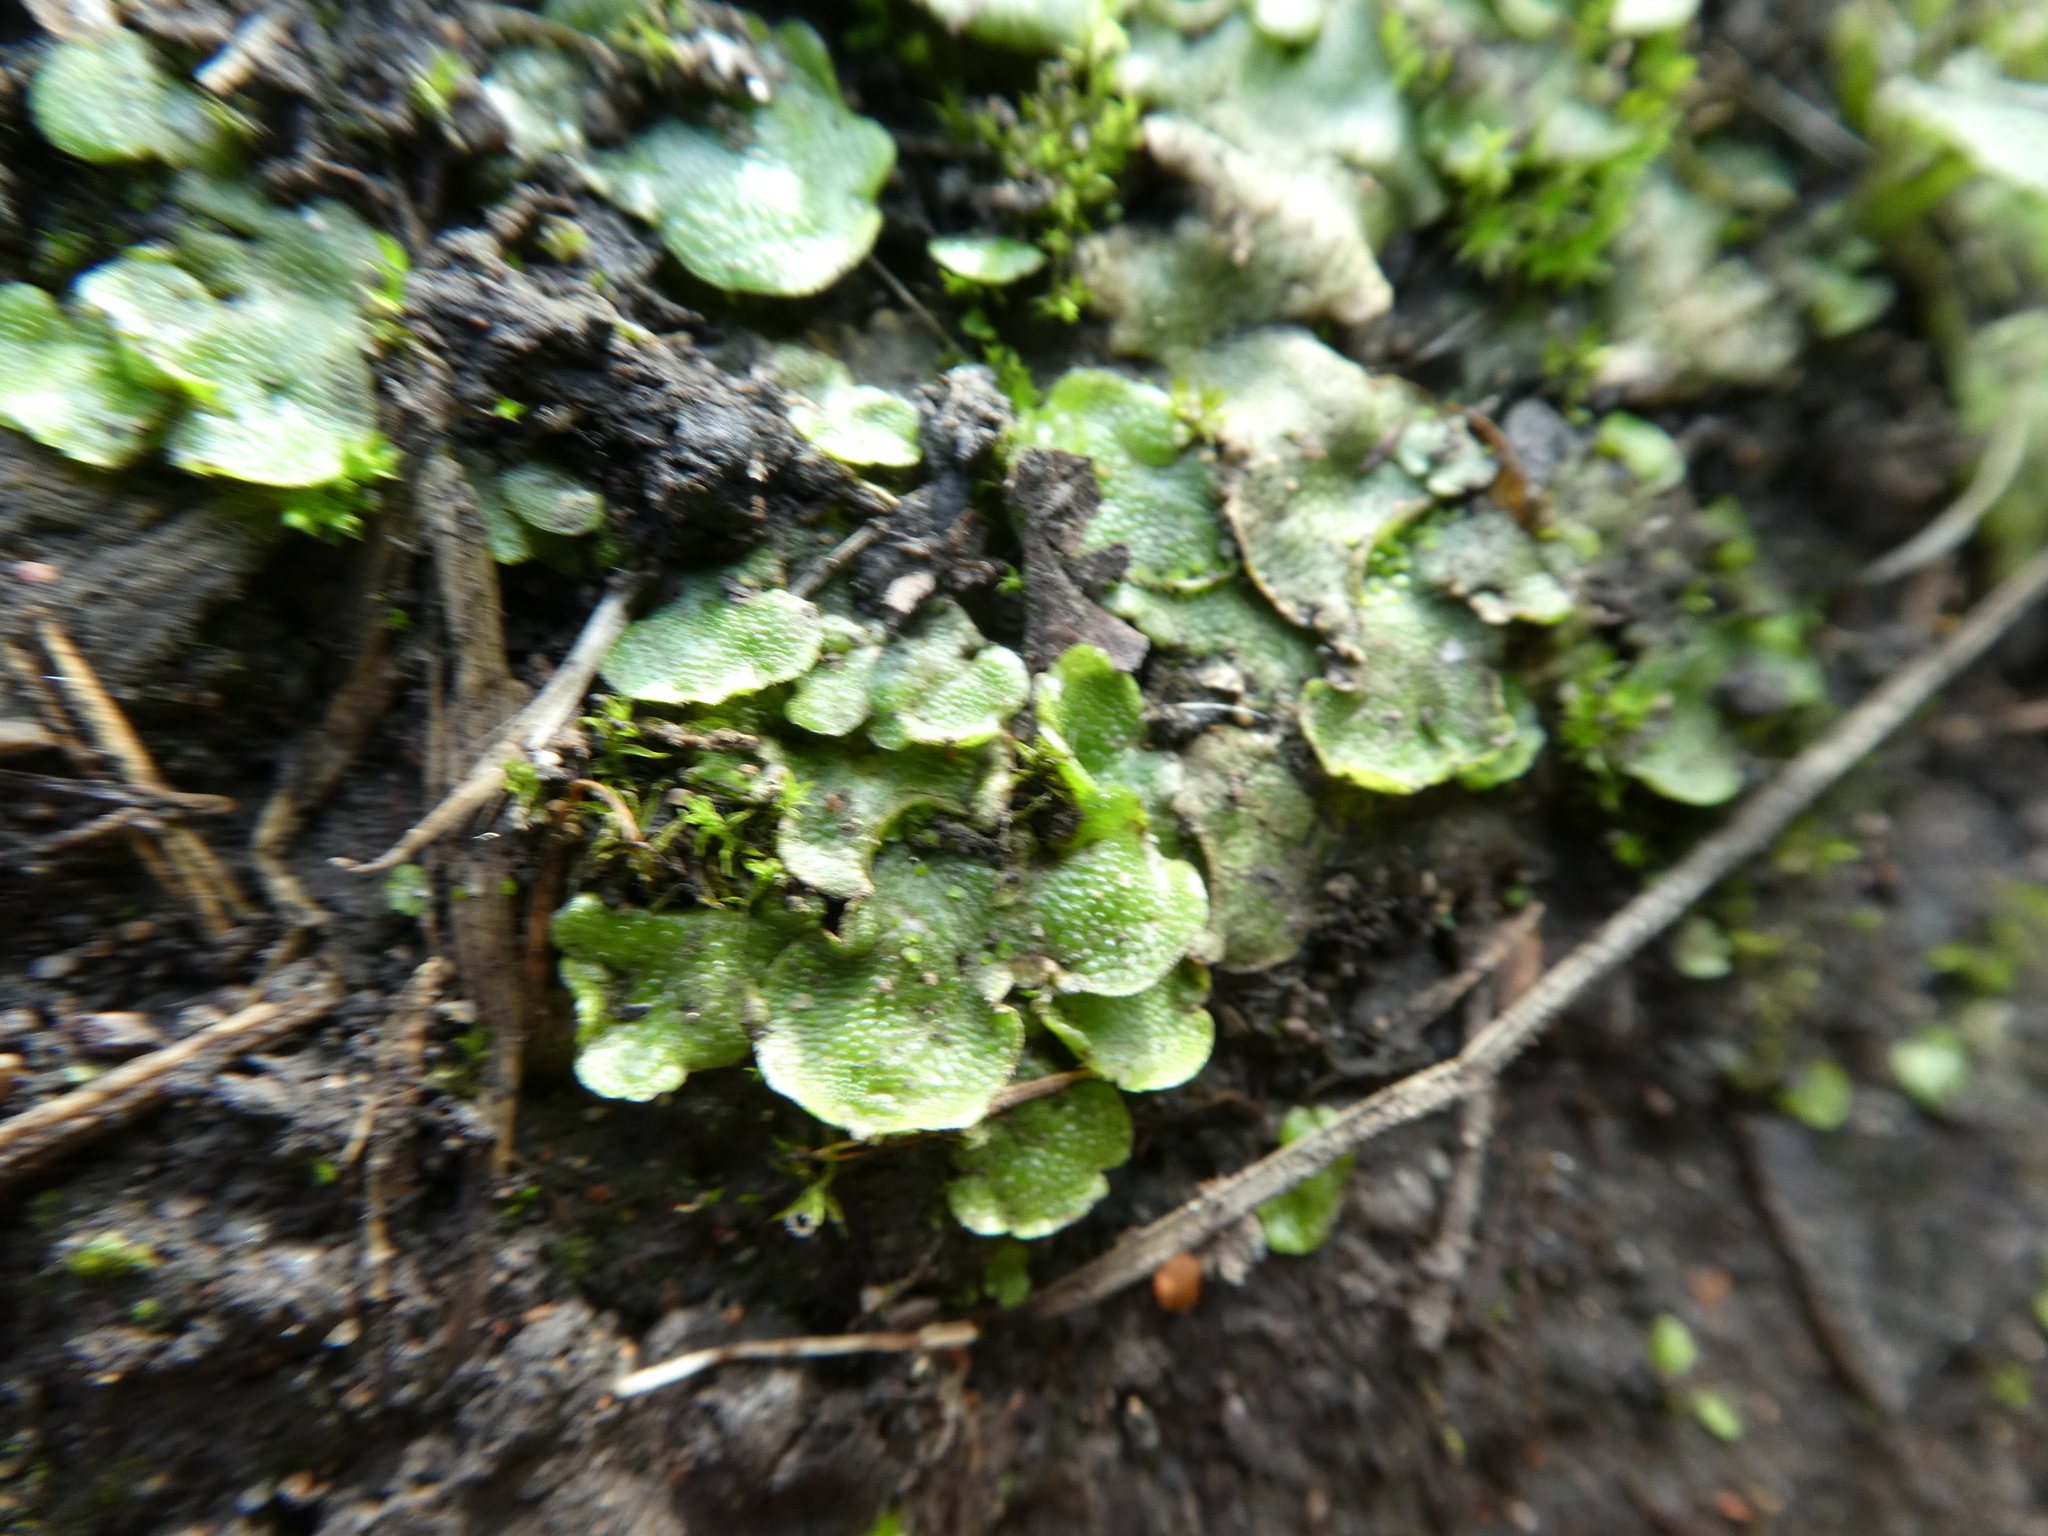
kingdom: Plantae
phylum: Marchantiophyta
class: Marchantiopsida
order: Lunulariales
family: Lunulariaceae
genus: Lunularia
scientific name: Lunularia cruciata
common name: Crescent-cup liverwort
